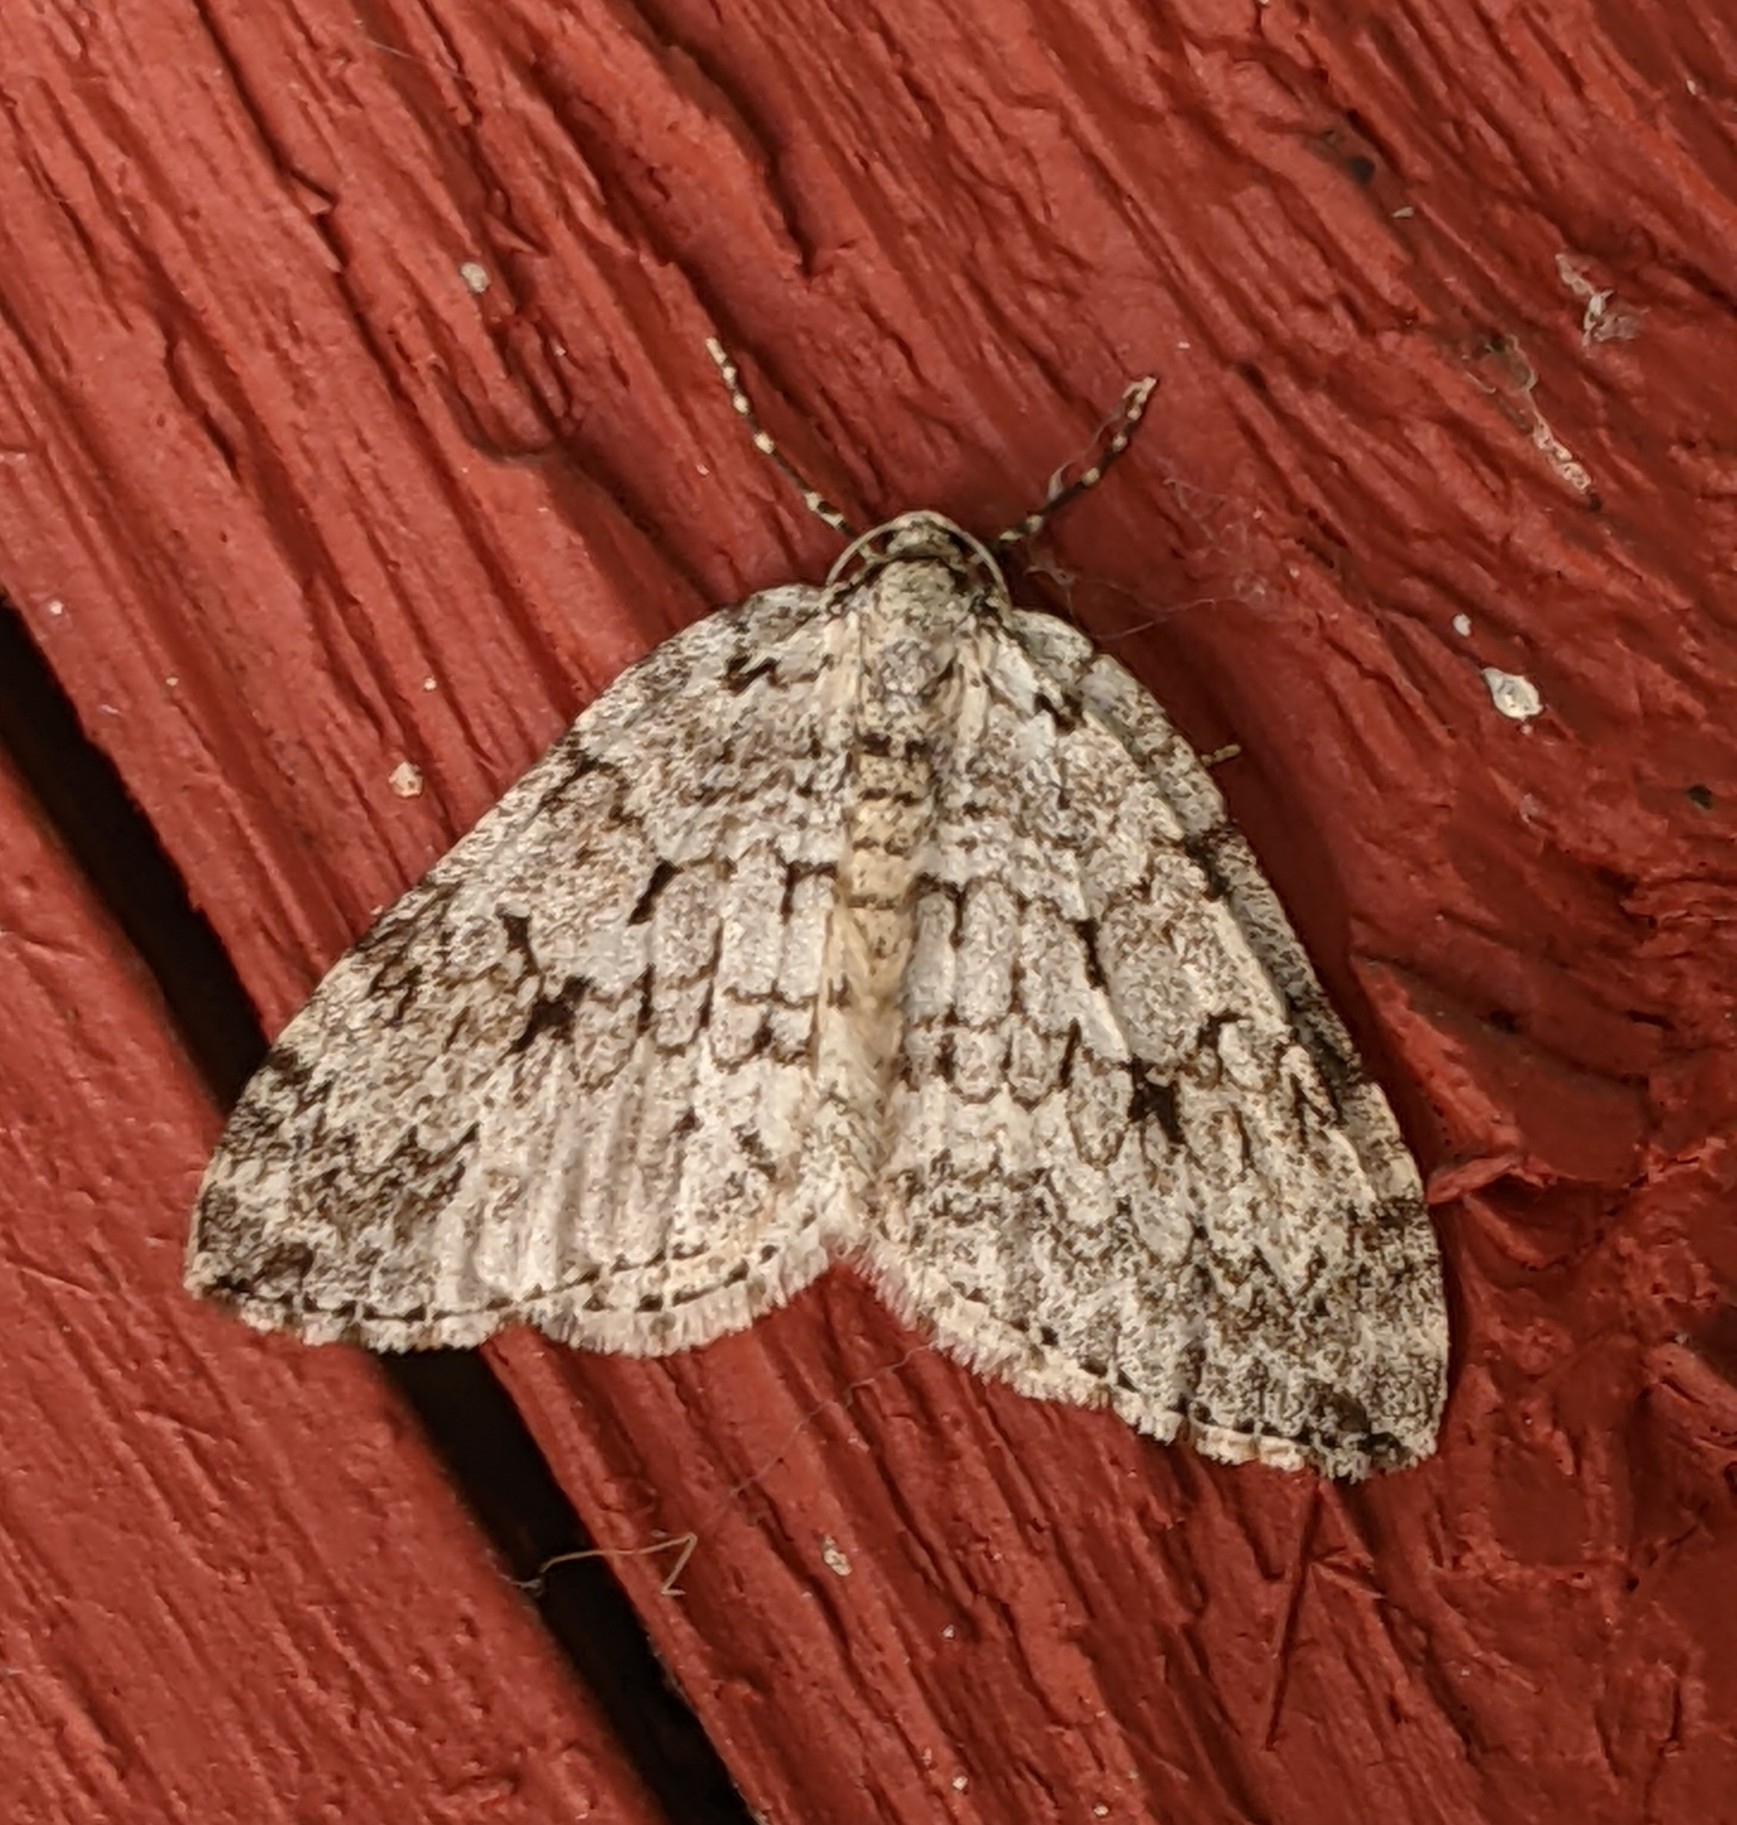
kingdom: Animalia
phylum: Arthropoda
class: Insecta
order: Lepidoptera
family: Geometridae
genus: Epirrita
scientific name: Epirrita autumnata
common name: Autumnal moth
